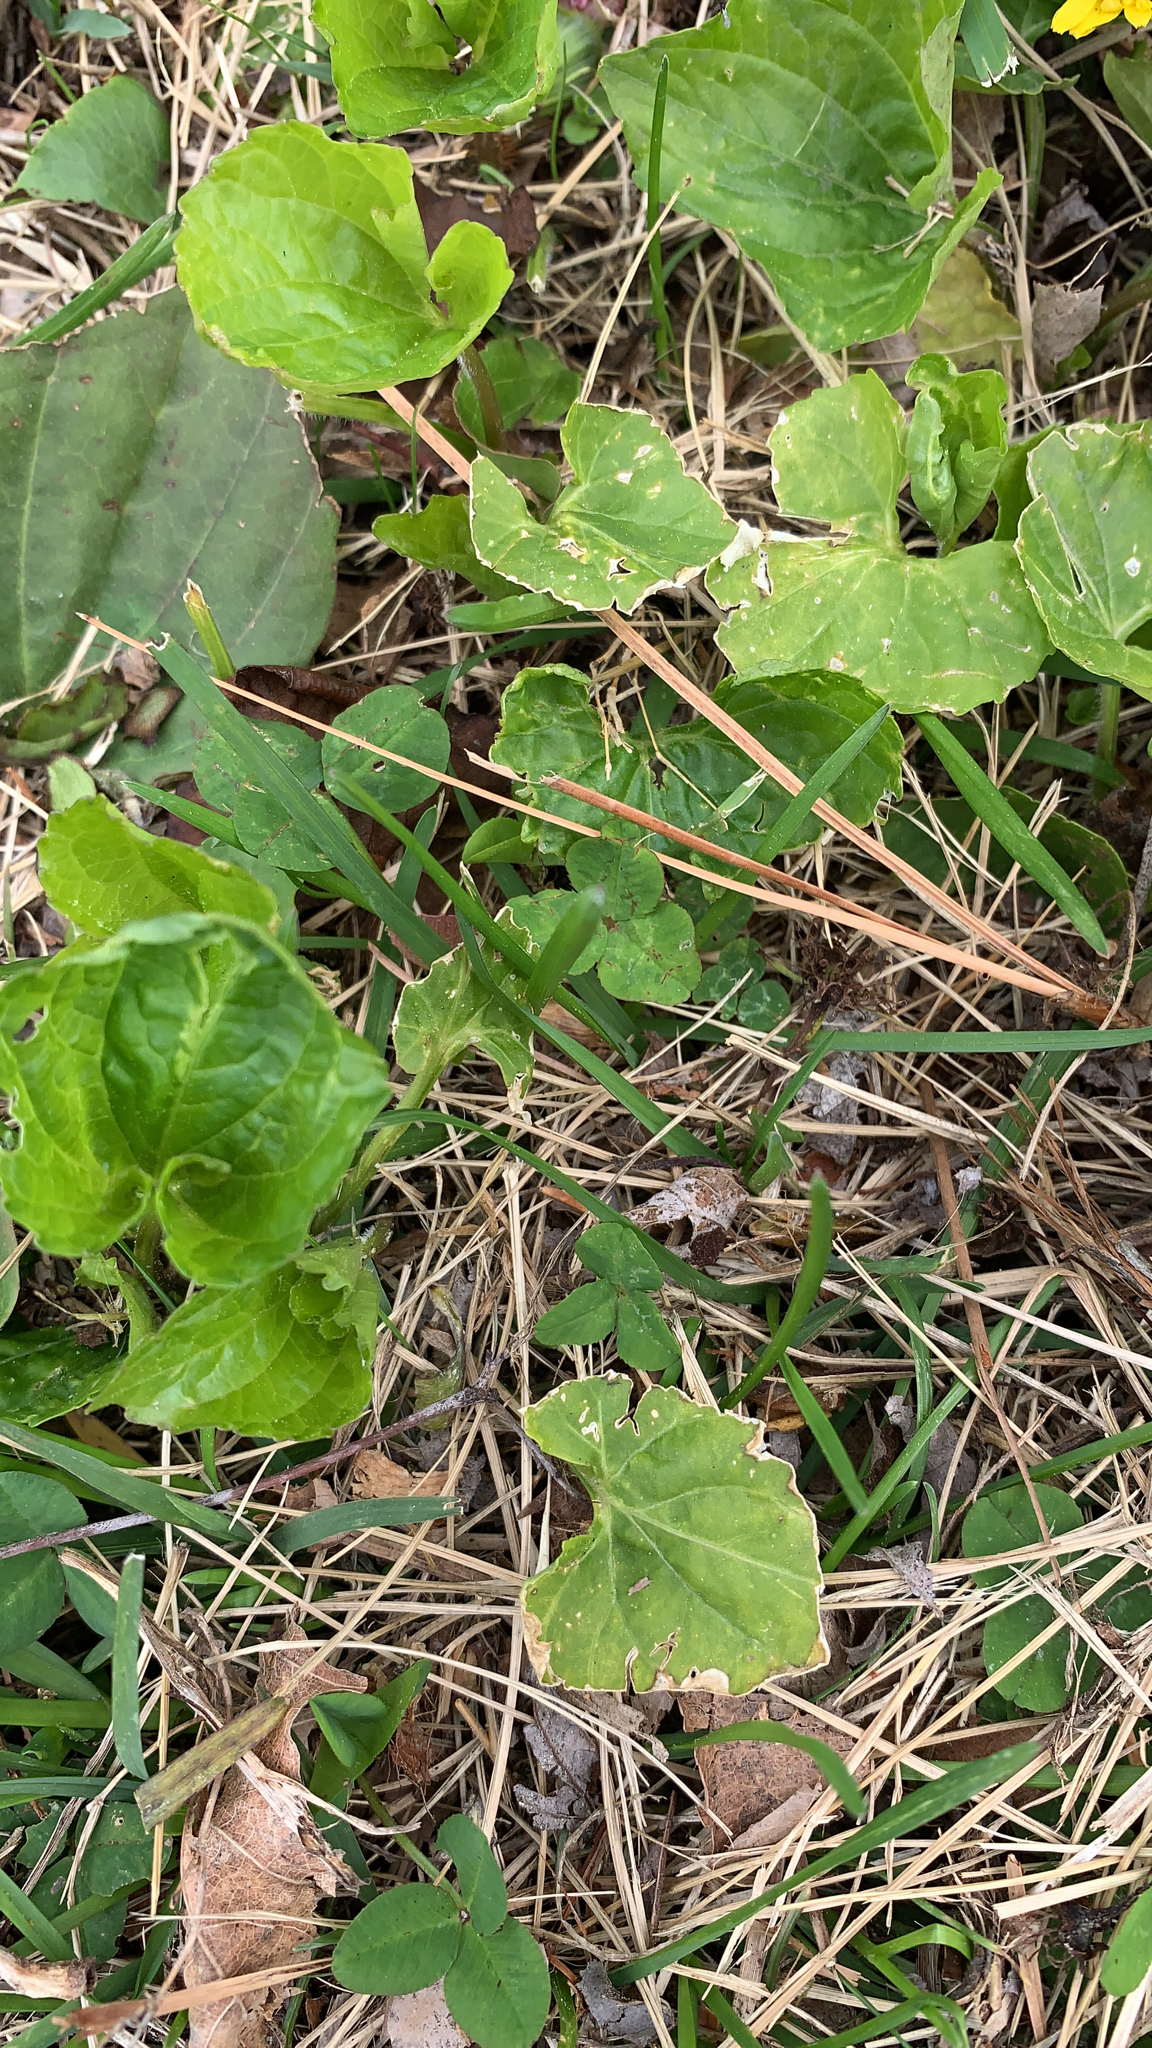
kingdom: Plantae
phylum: Tracheophyta
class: Magnoliopsida
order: Malpighiales
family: Violaceae
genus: Viola
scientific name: Viola eriocarpa
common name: Smooth yellow violet
